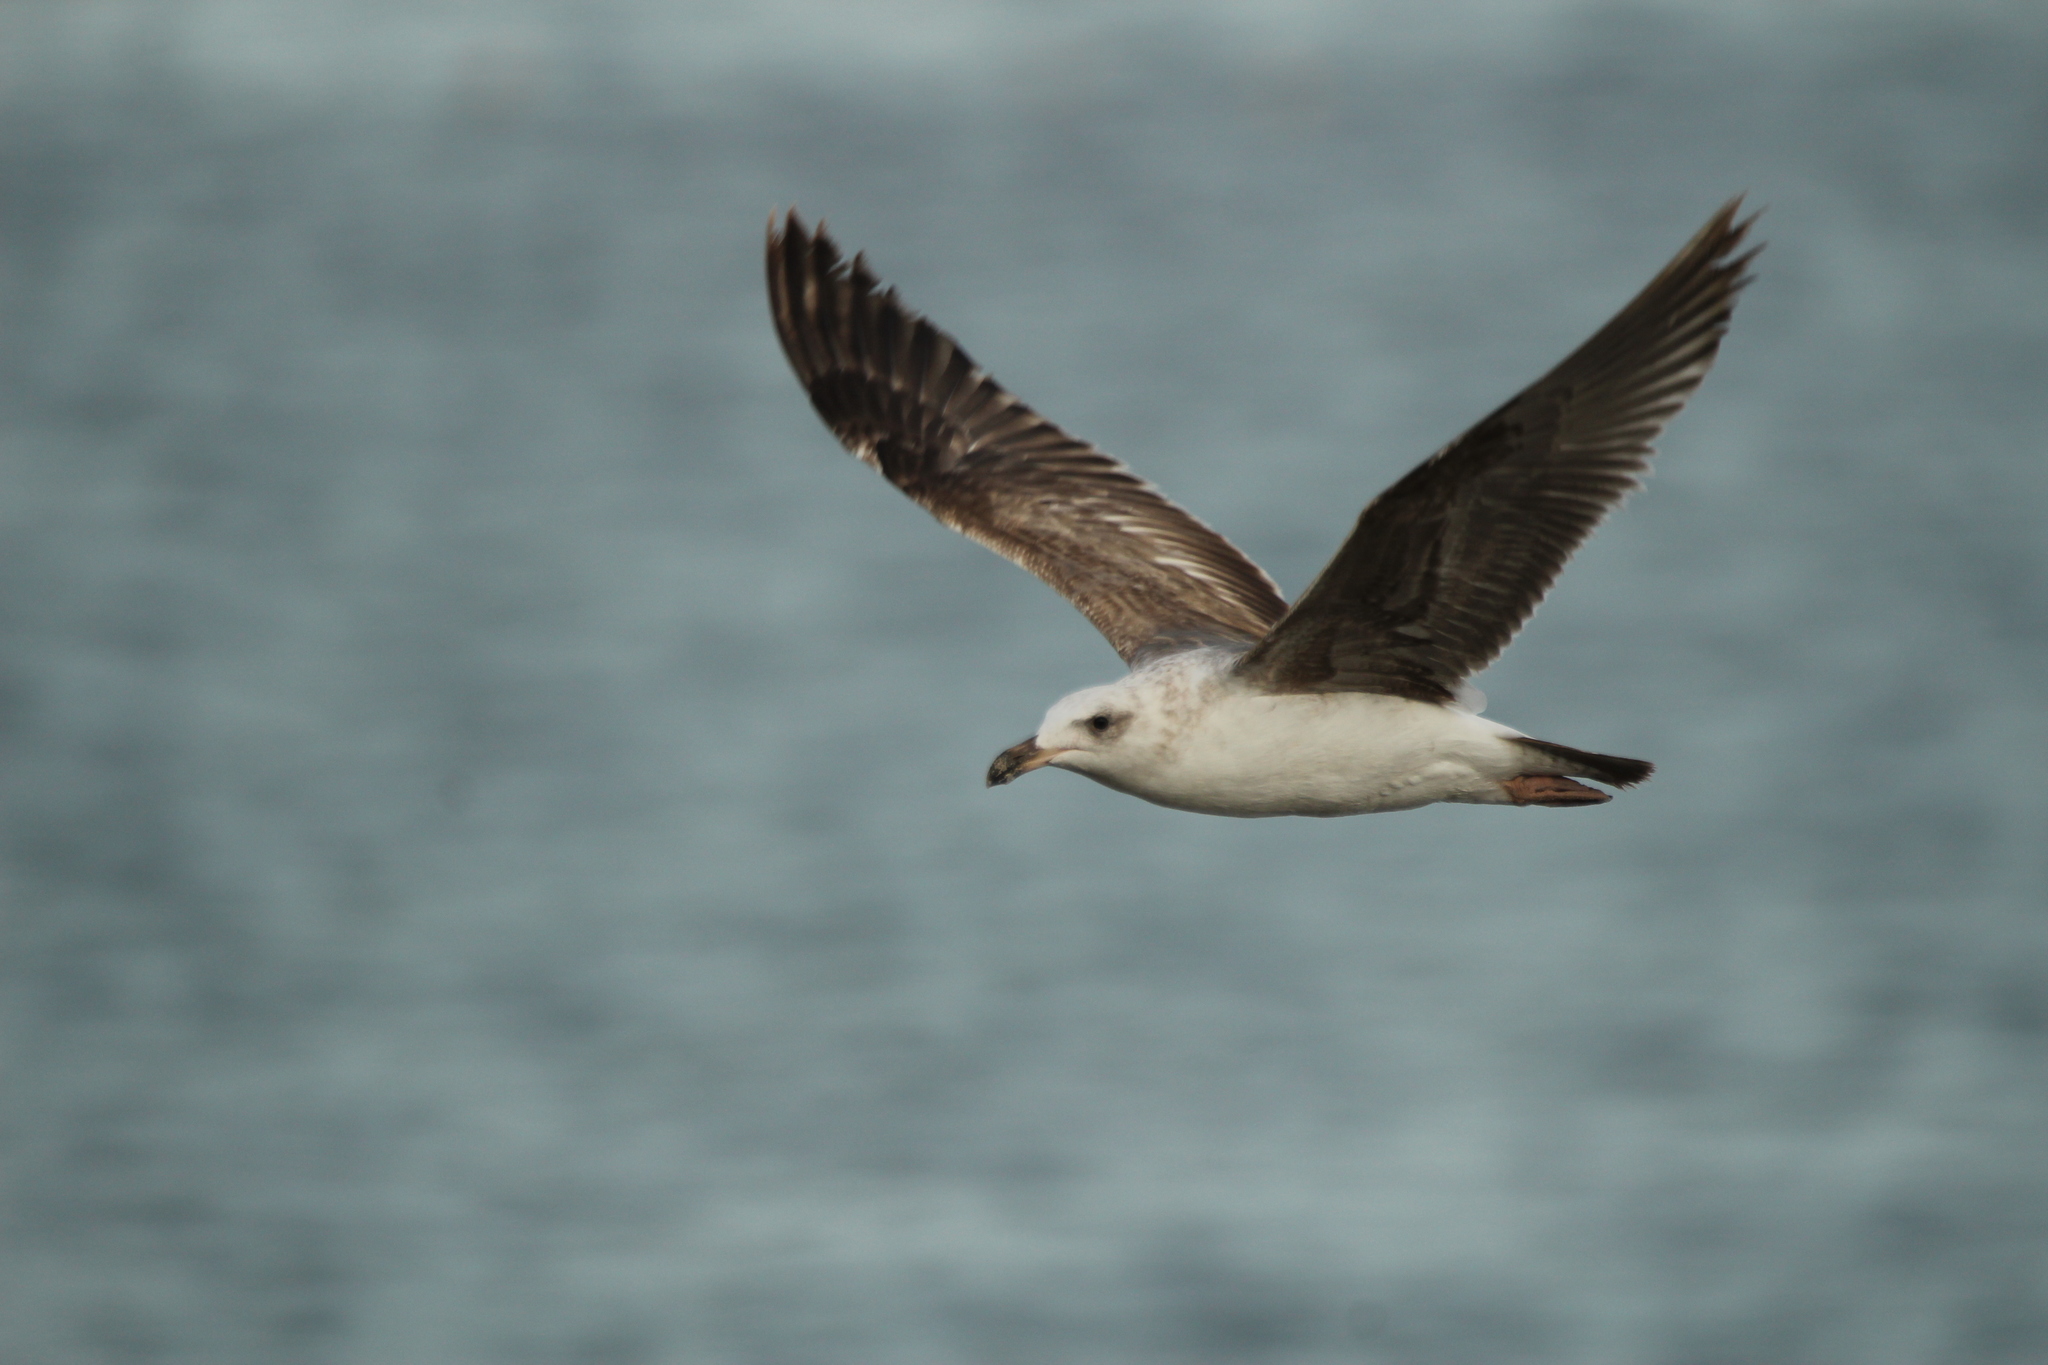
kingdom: Animalia
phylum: Chordata
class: Aves
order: Charadriiformes
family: Laridae
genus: Larus
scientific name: Larus livens
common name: Yellow-footed gull
